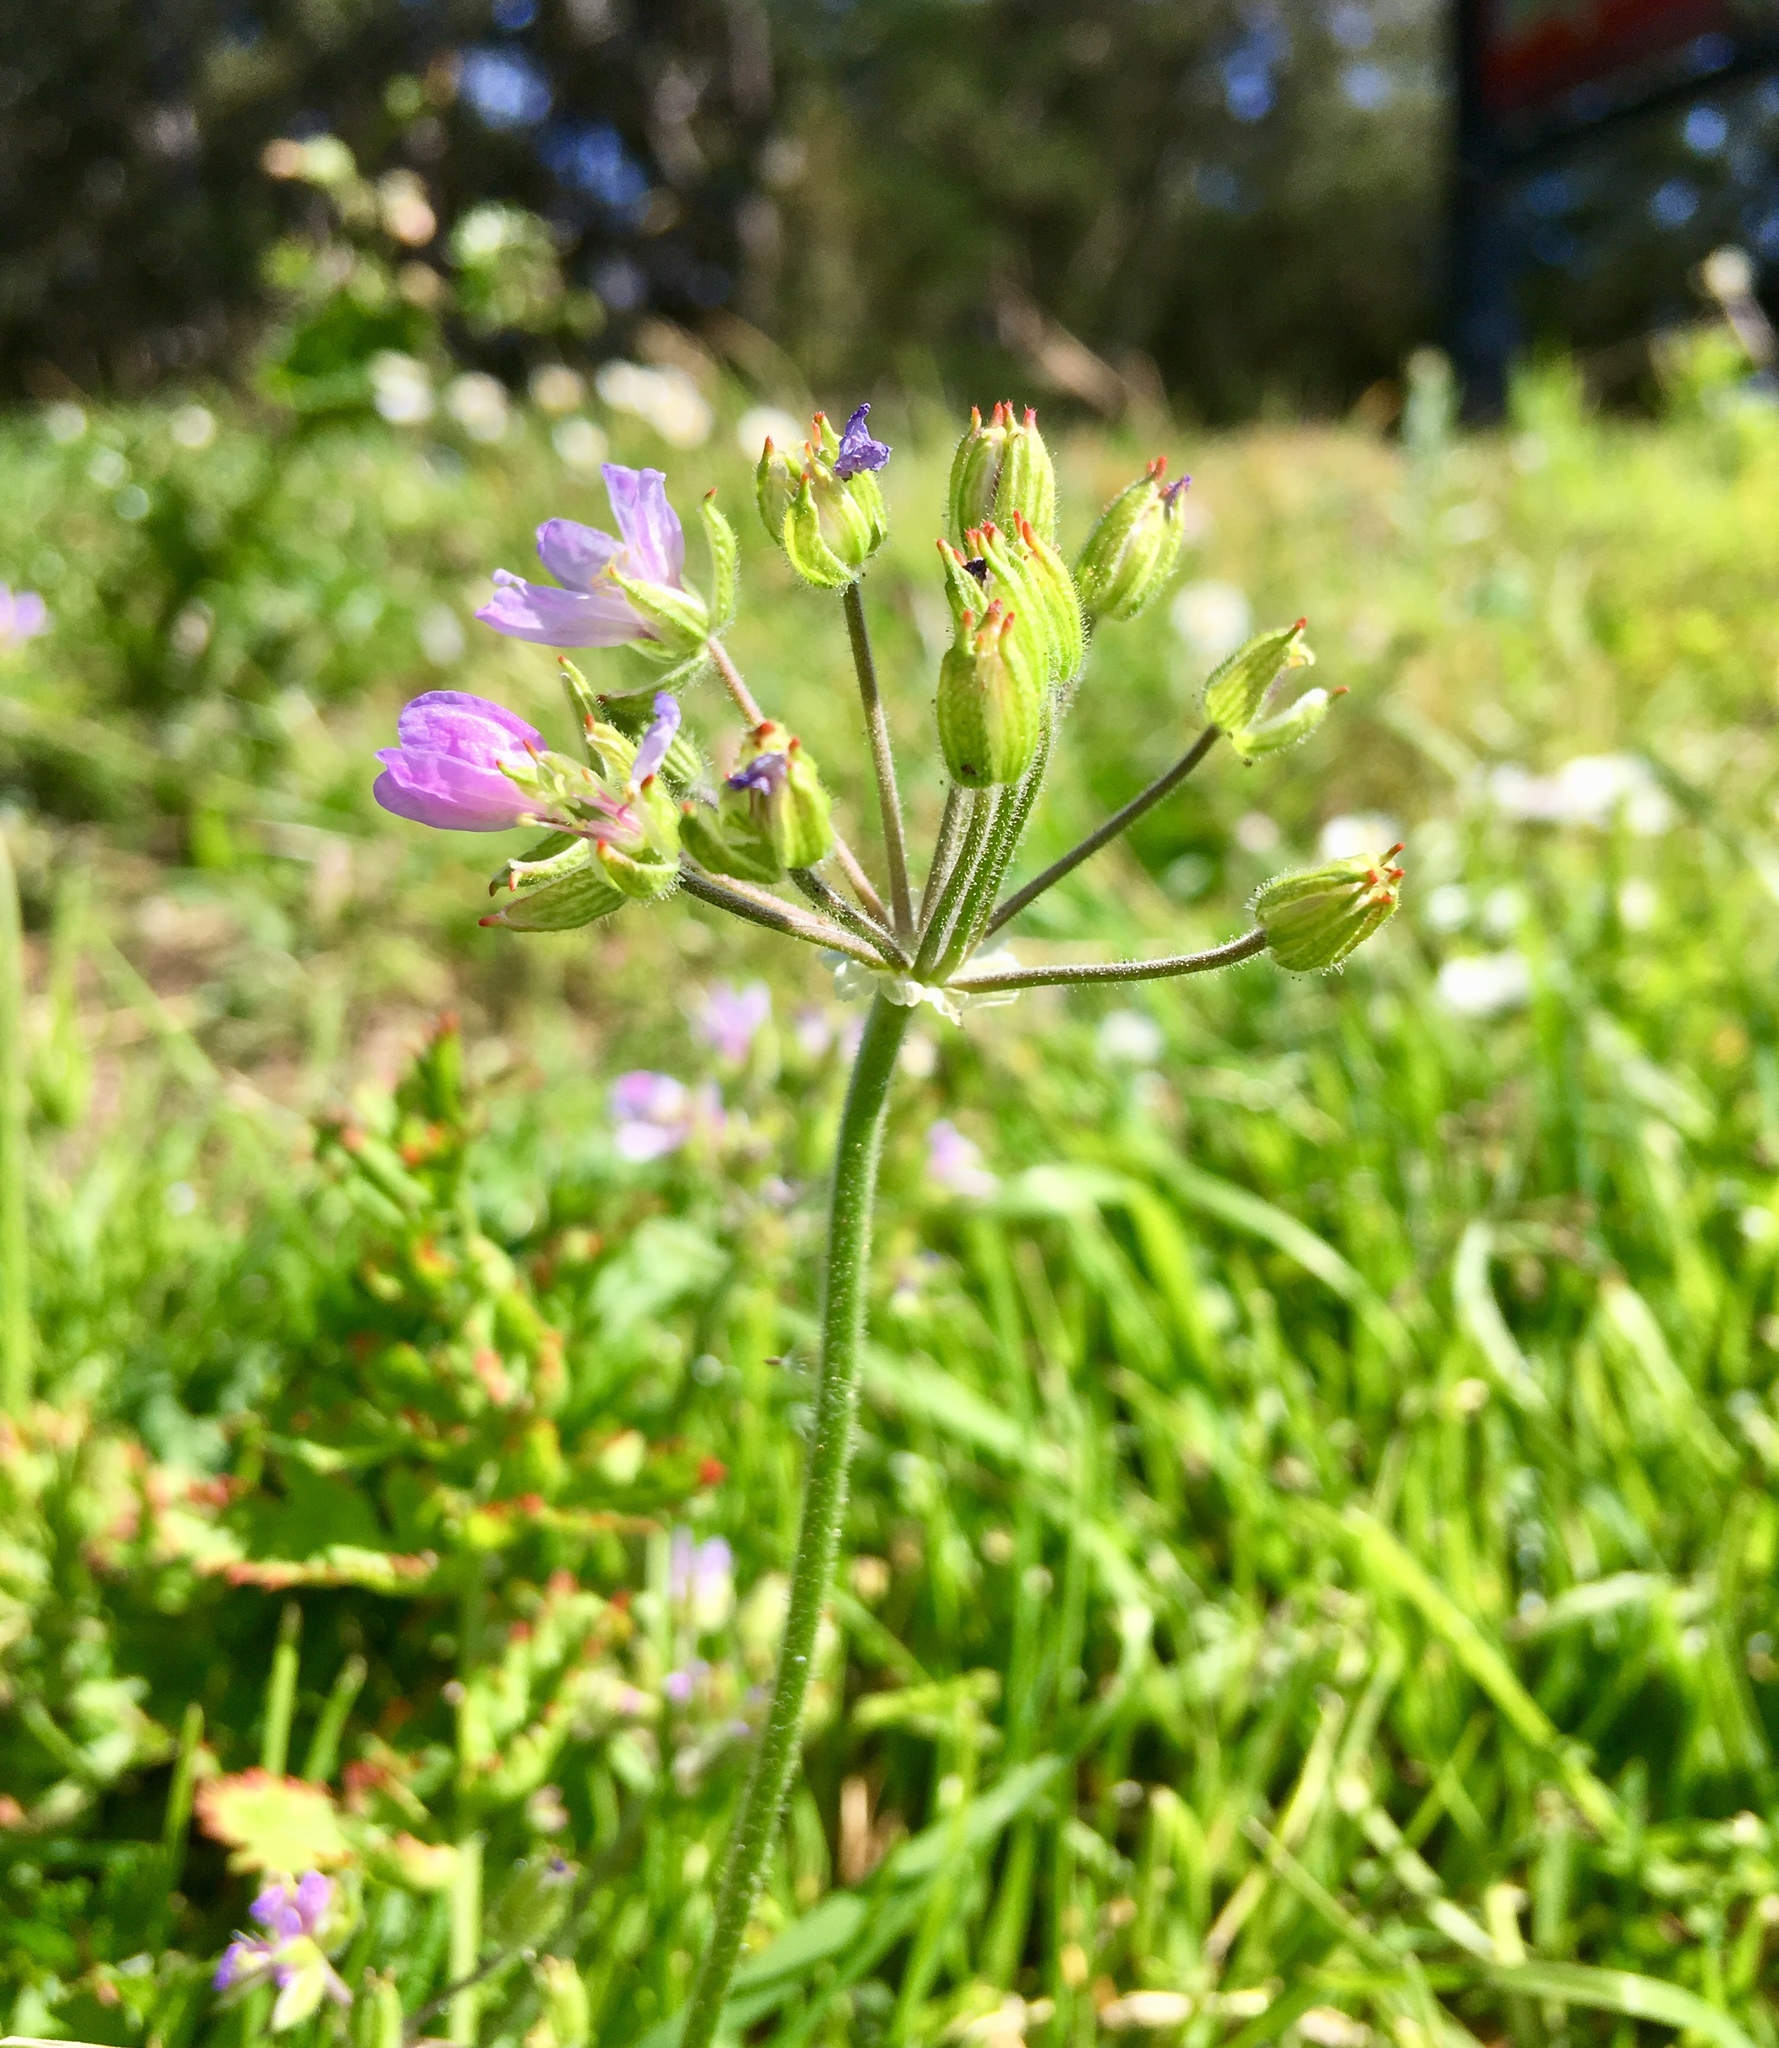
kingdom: Plantae
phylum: Tracheophyta
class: Magnoliopsida
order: Geraniales
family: Geraniaceae
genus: Erodium
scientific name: Erodium moschatum
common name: Musk stork's-bill
